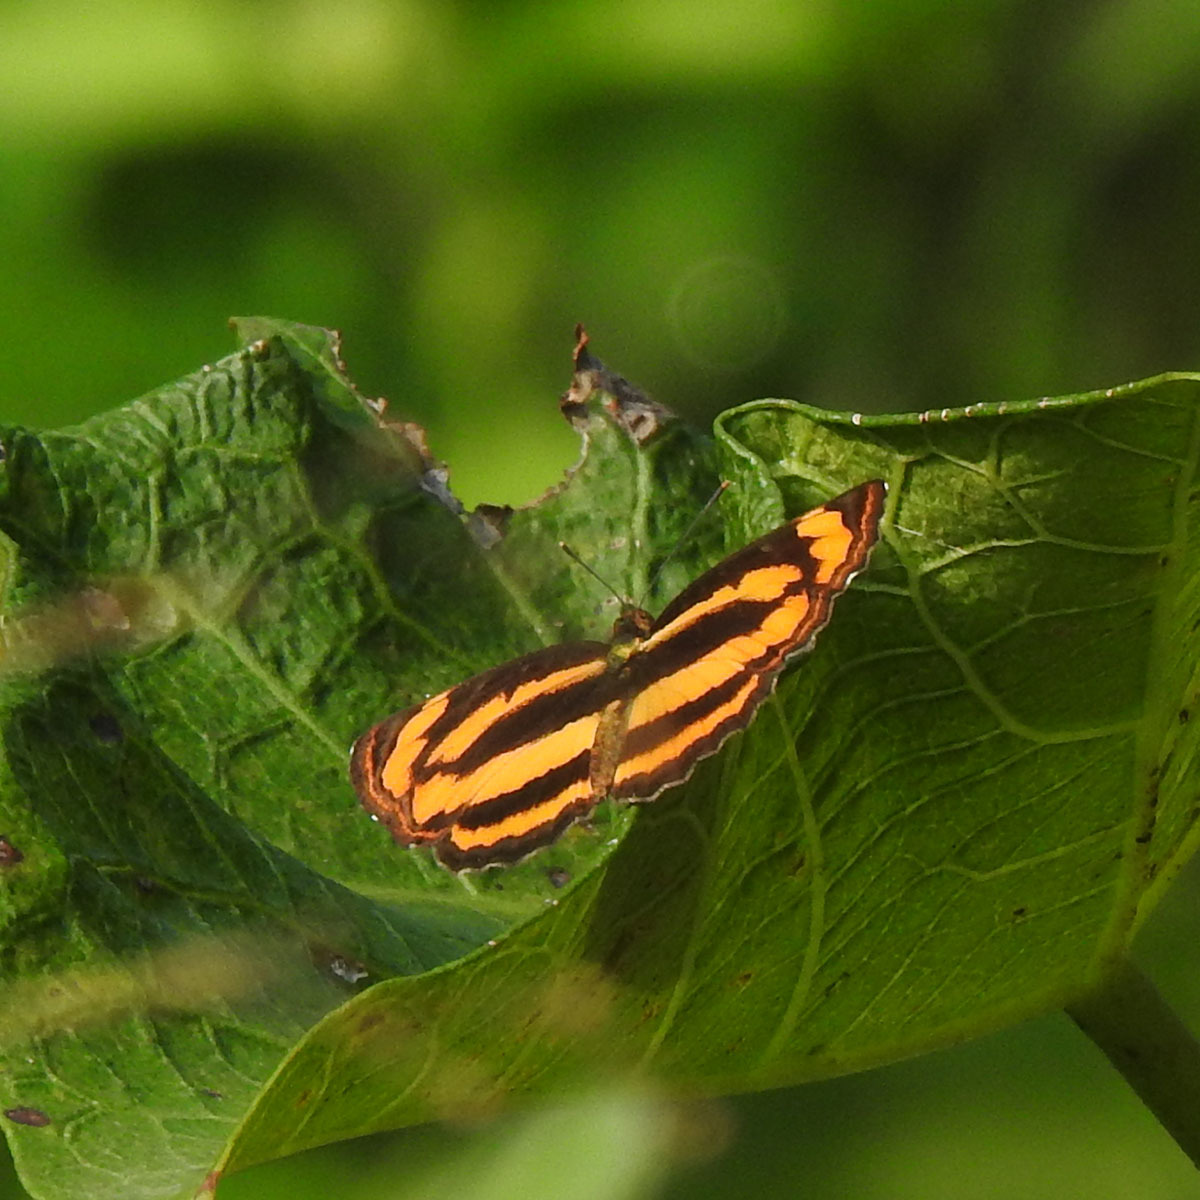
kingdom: Animalia
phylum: Arthropoda
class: Insecta
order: Lepidoptera
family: Nymphalidae
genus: Pantoporia
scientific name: Pantoporia hordonia
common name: Common lascar
